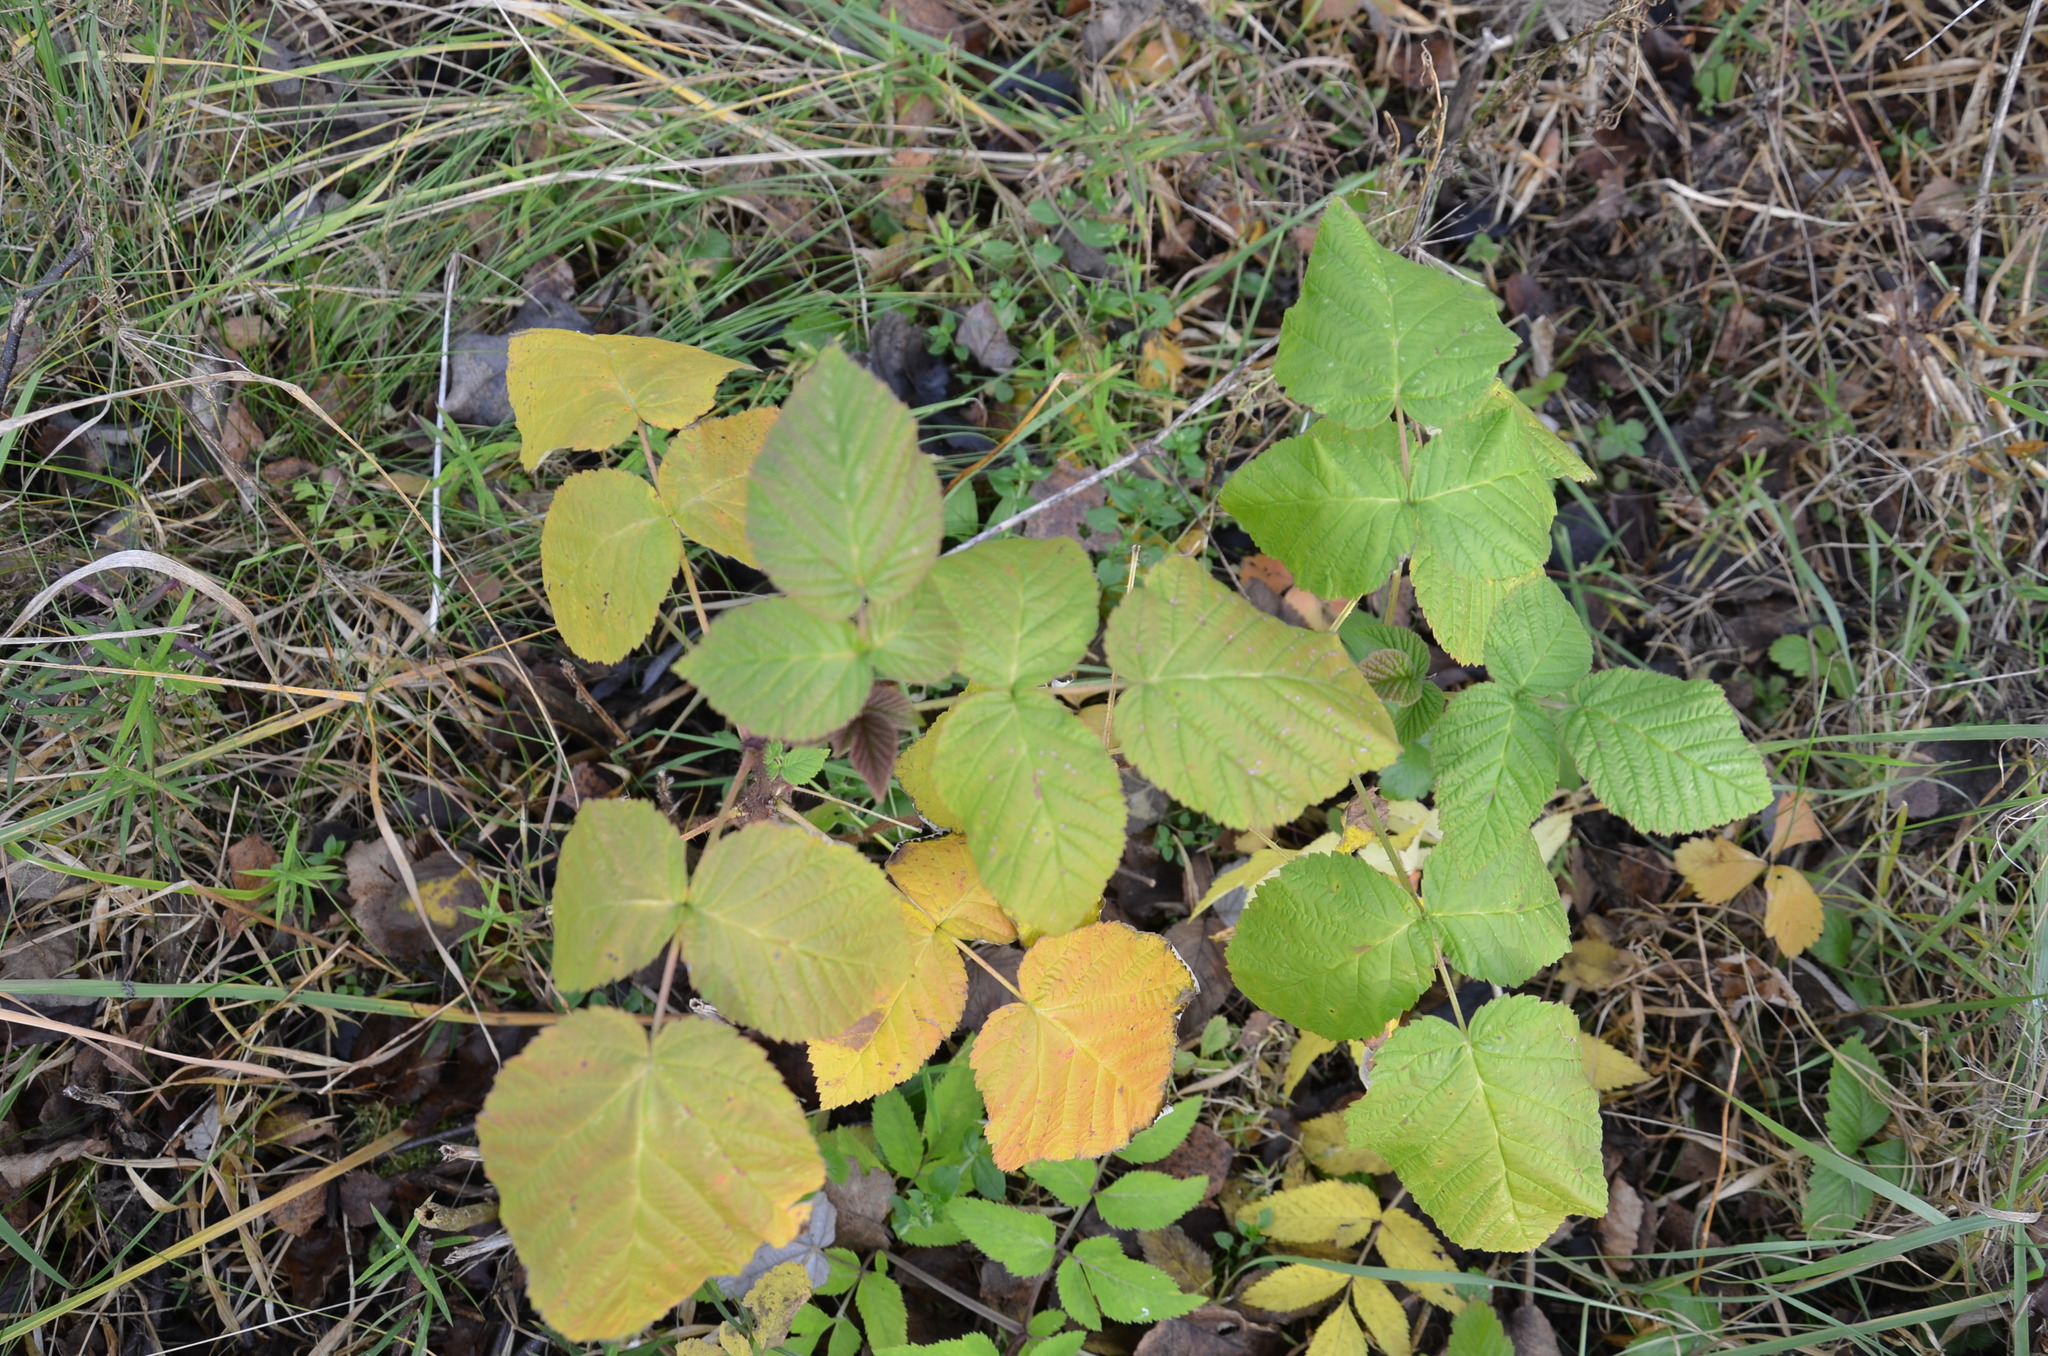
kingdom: Plantae
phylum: Tracheophyta
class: Magnoliopsida
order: Rosales
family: Rosaceae
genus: Rubus
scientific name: Rubus idaeus
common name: Raspberry
